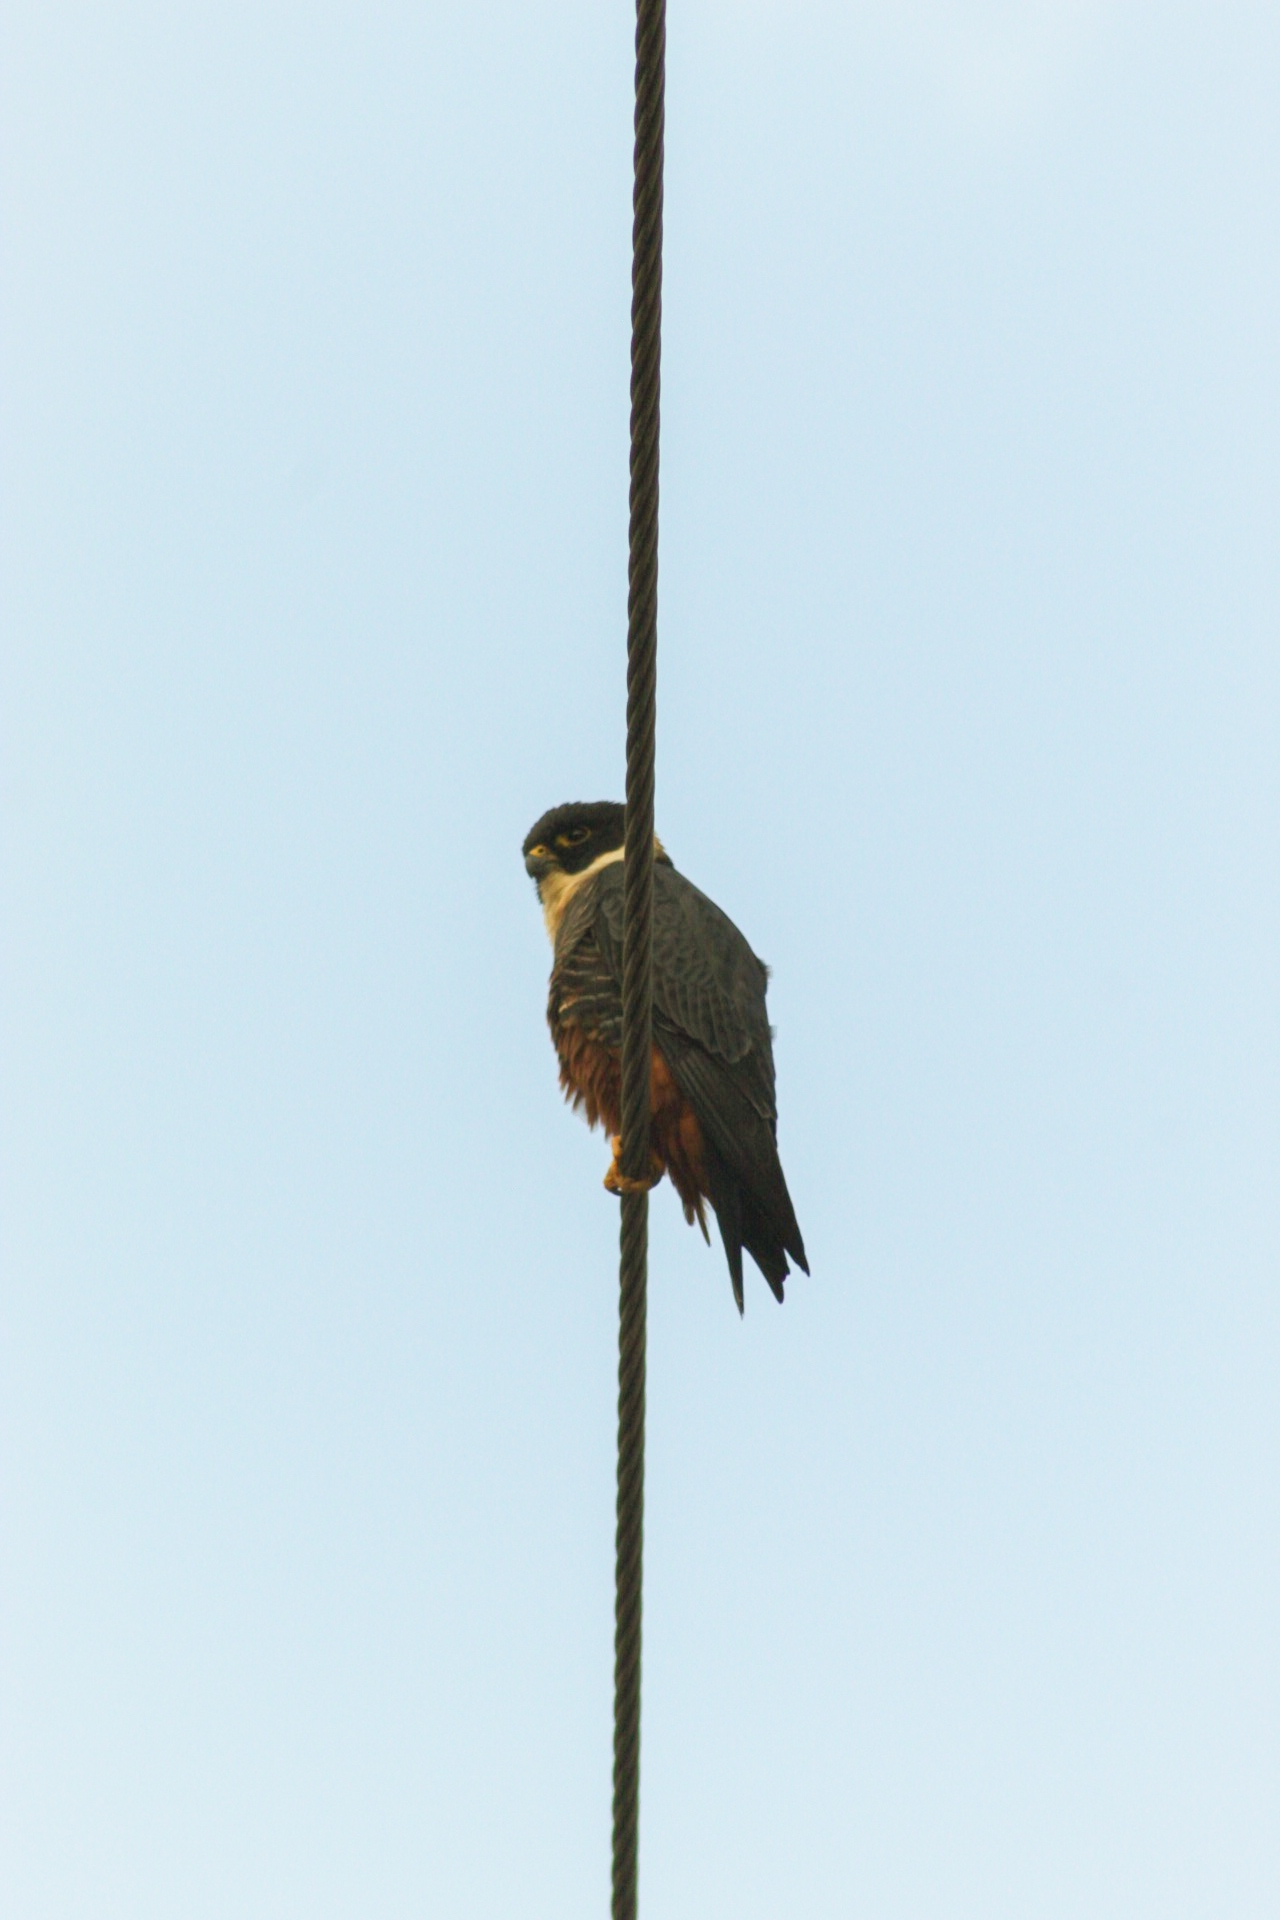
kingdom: Animalia
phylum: Chordata
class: Aves
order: Falconiformes
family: Falconidae
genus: Falco
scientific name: Falco rufigularis
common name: Bat falcon
